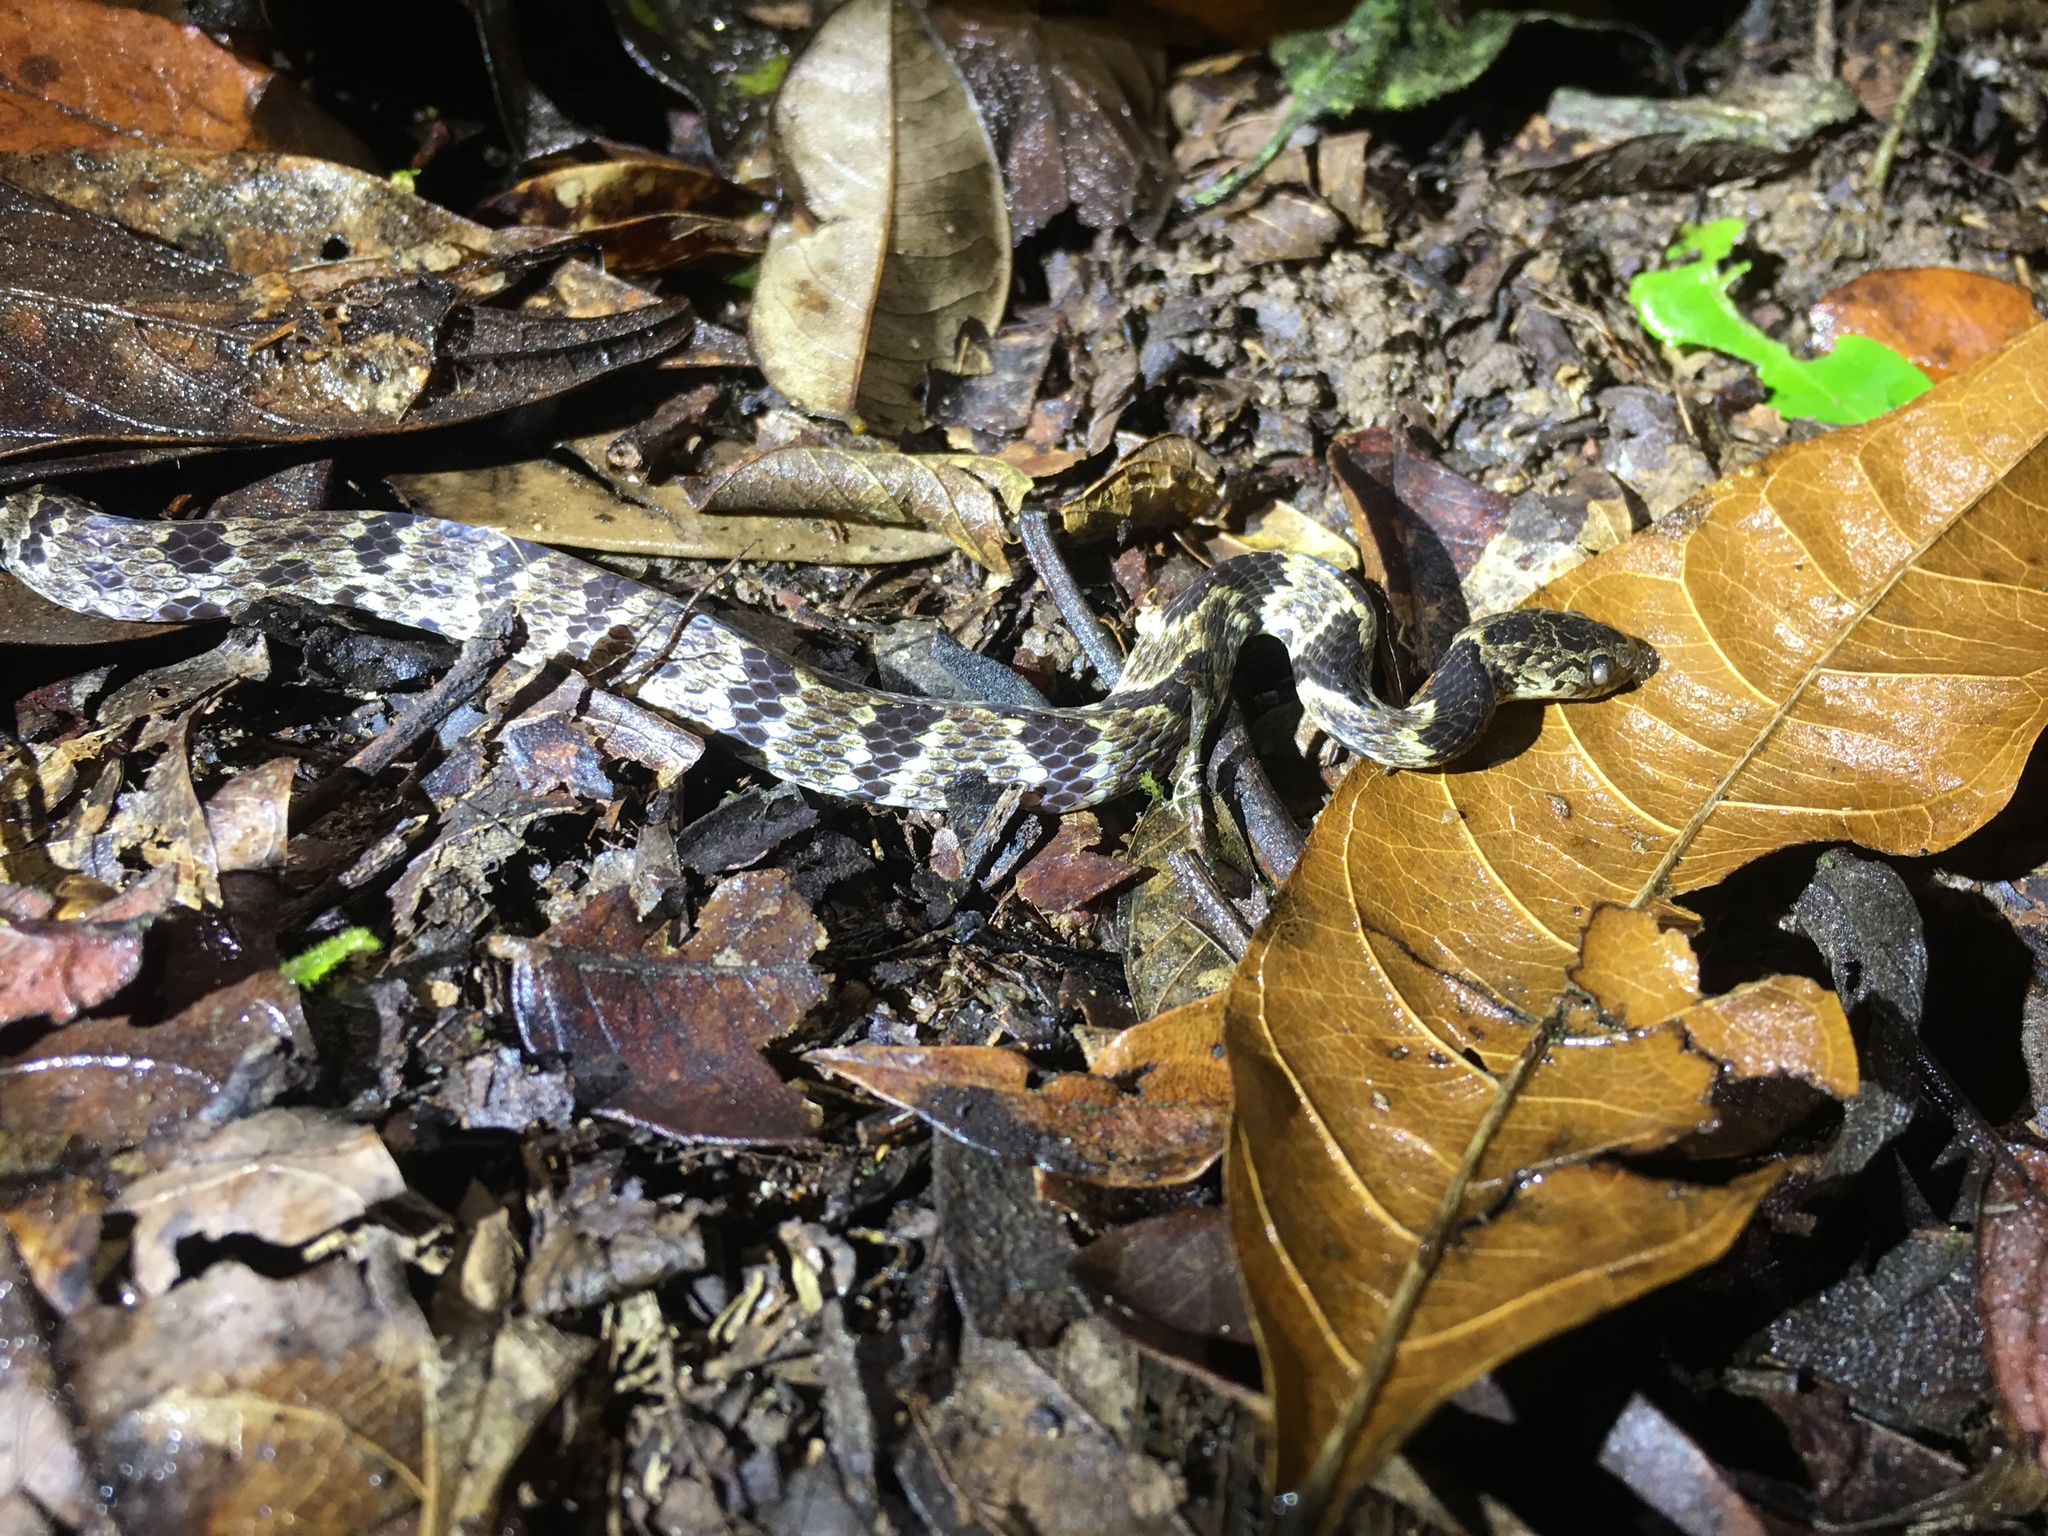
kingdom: Animalia
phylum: Chordata
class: Squamata
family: Colubridae
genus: Dipsas
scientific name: Dipsas neuwiedi
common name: Neuwied's tree snake
